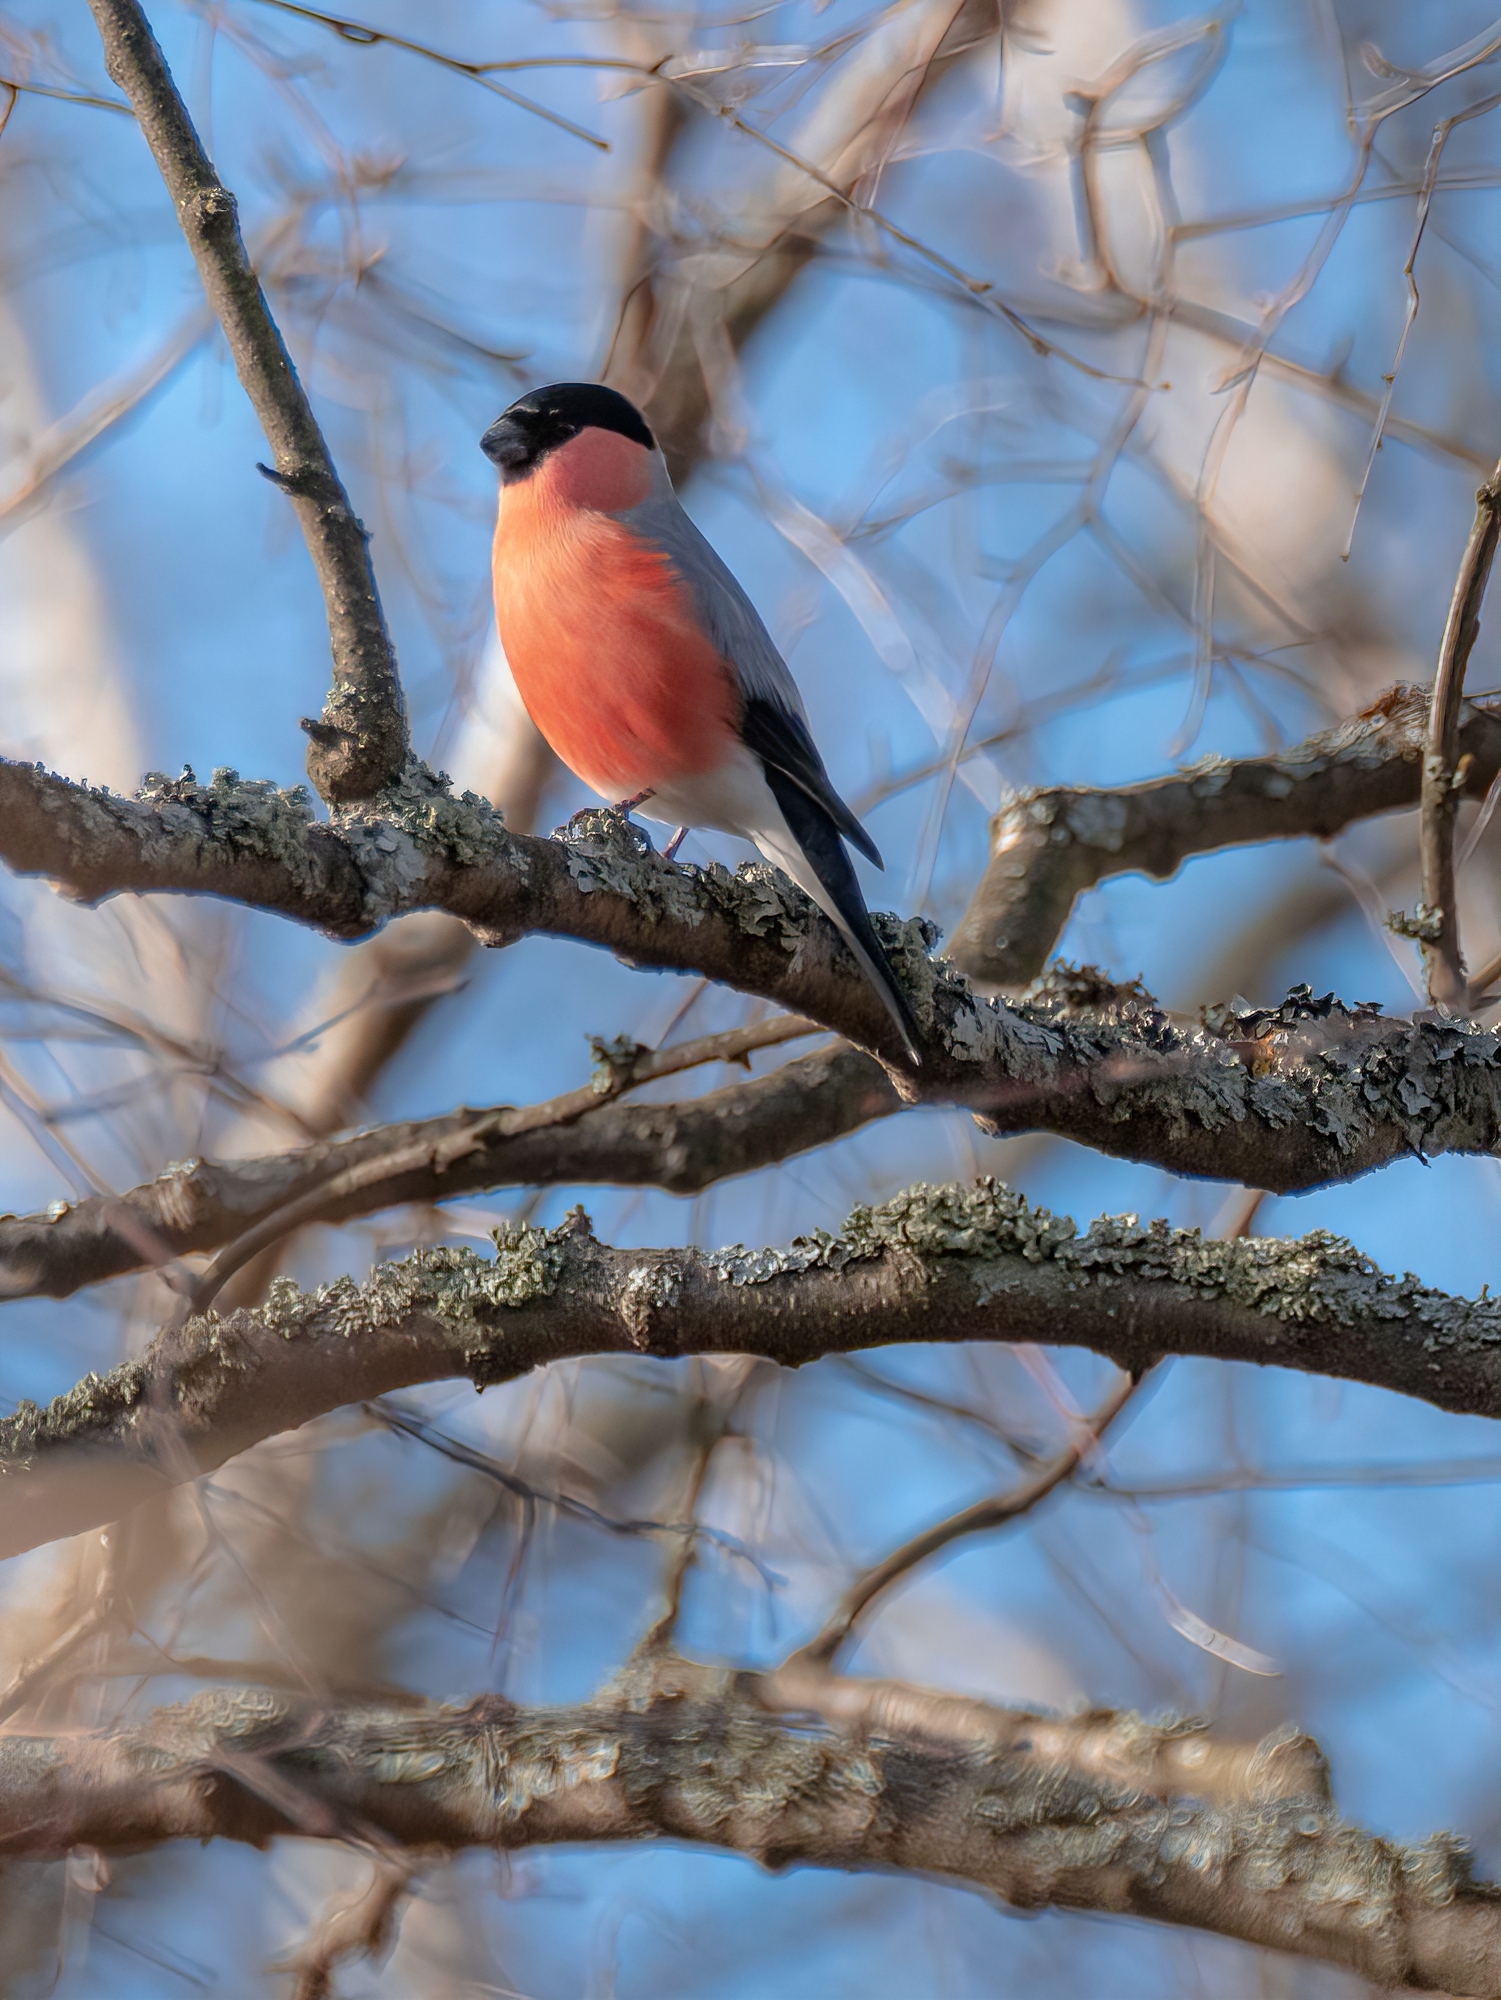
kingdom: Animalia
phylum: Chordata
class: Aves
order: Passeriformes
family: Fringillidae
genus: Pyrrhula
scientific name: Pyrrhula pyrrhula
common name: Eurasian bullfinch
